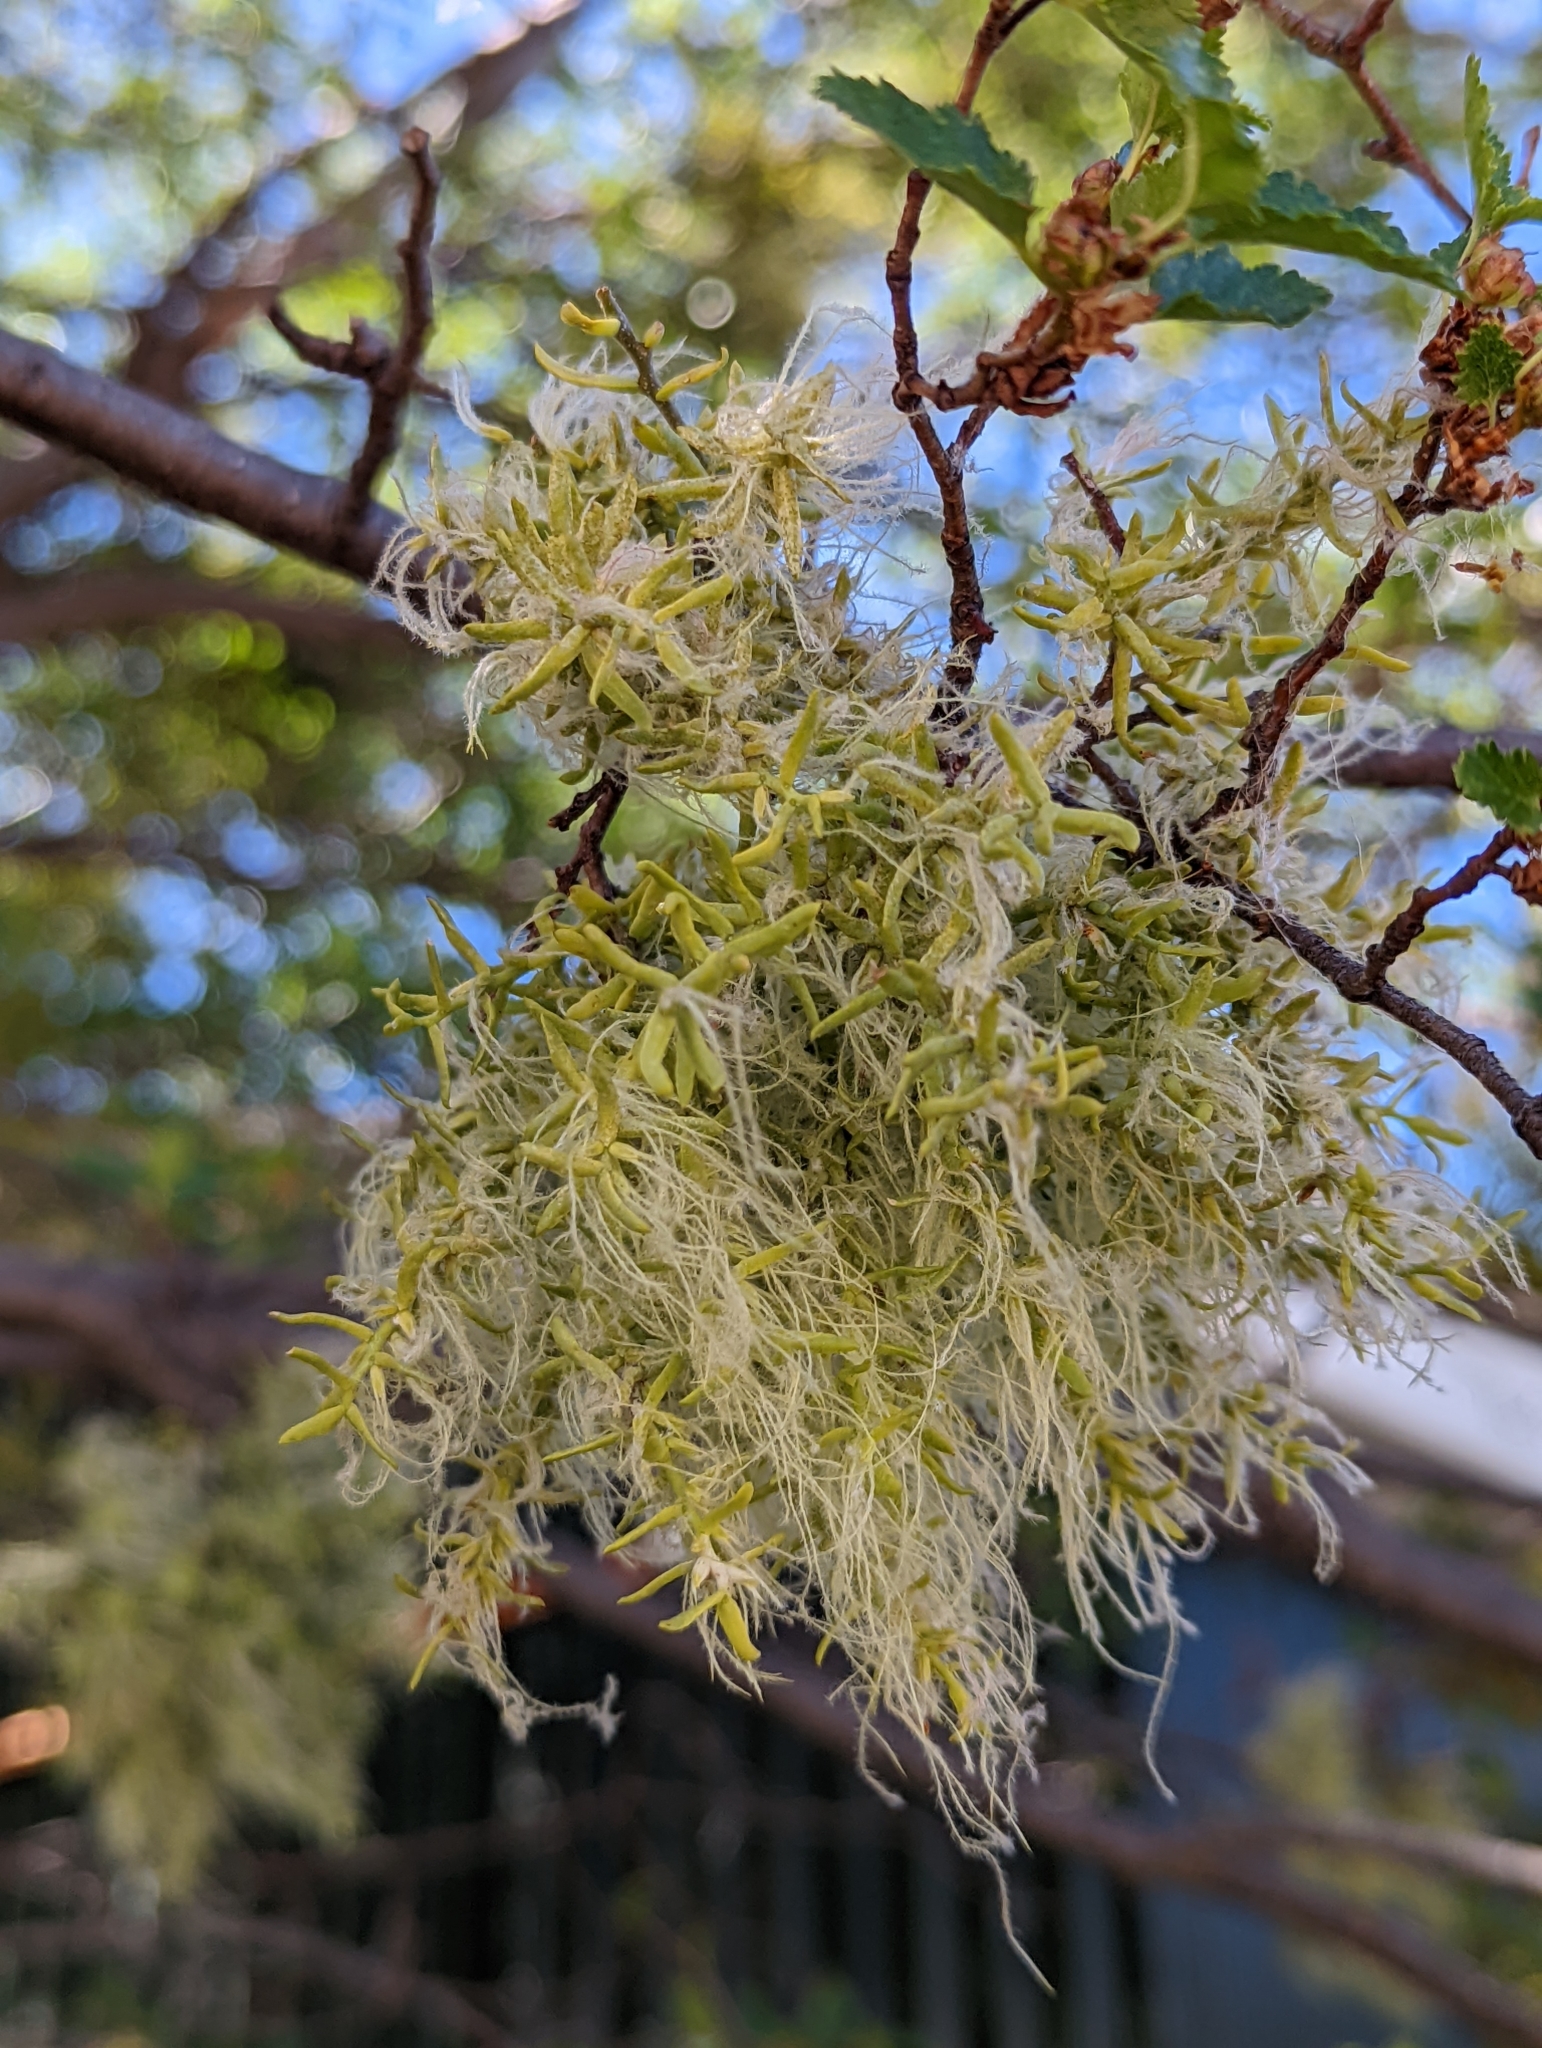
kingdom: Plantae
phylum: Tracheophyta
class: Magnoliopsida
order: Santalales
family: Misodendraceae
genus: Misodendrum
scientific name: Misodendrum linearifolium
